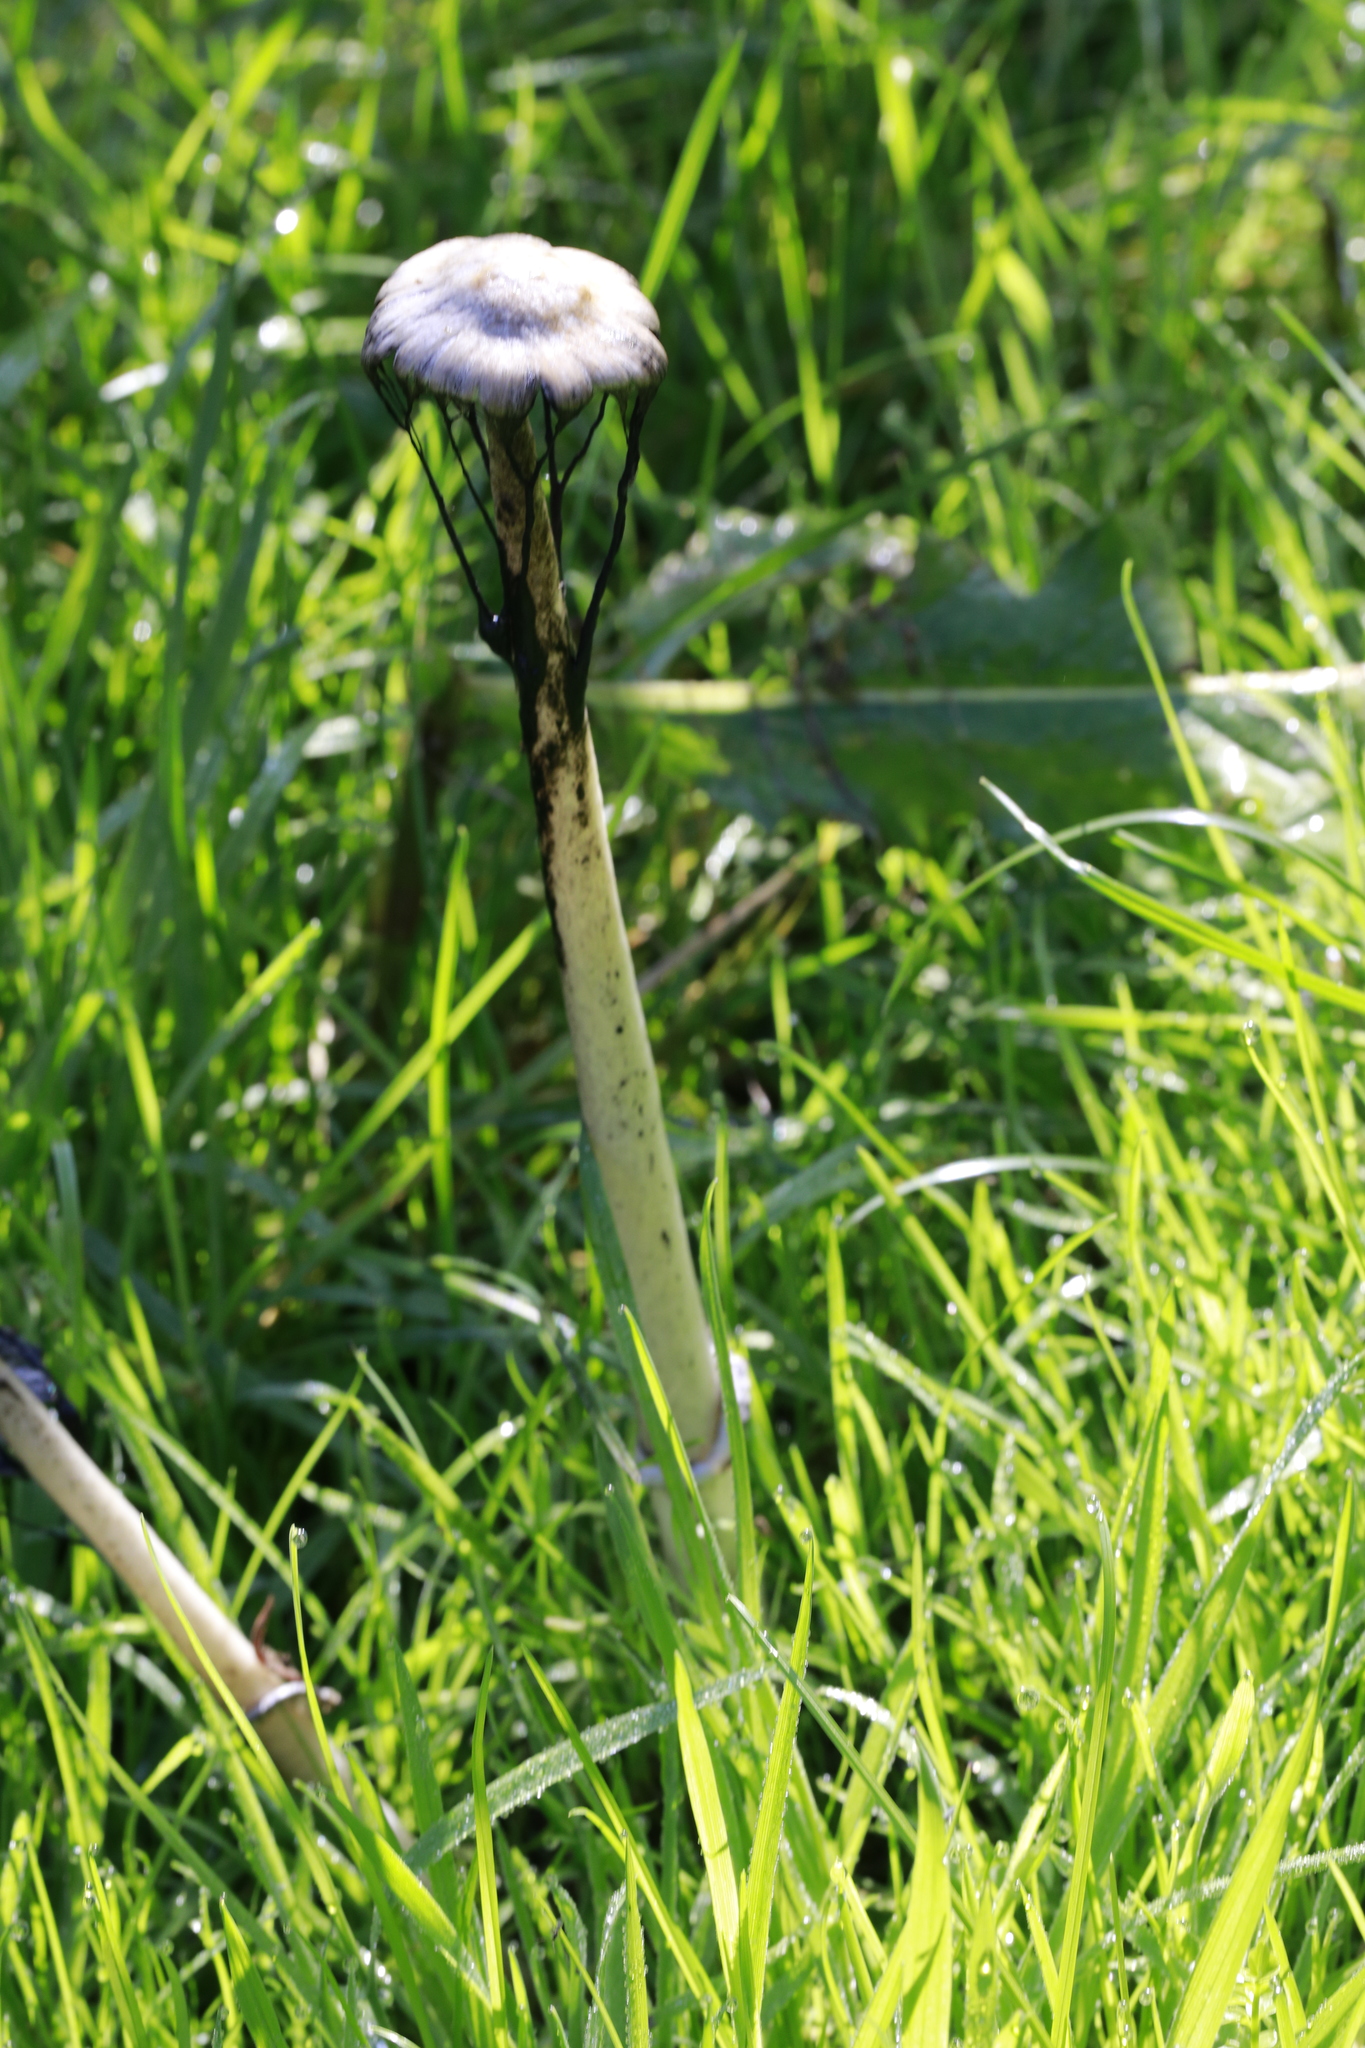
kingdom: Fungi
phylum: Basidiomycota
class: Agaricomycetes
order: Agaricales
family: Agaricaceae
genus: Coprinus
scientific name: Coprinus comatus
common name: Lawyer's wig
